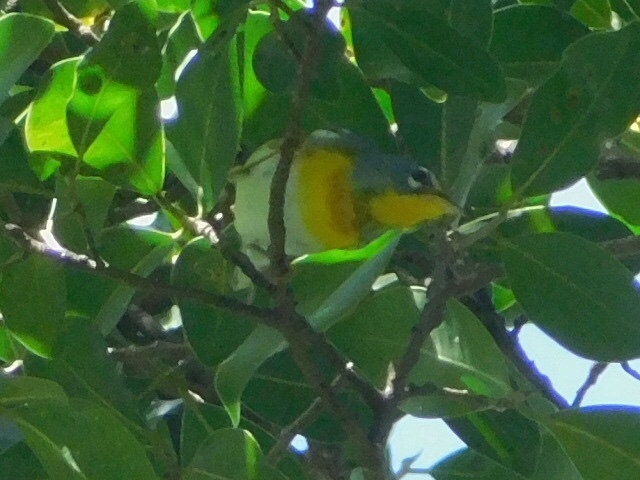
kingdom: Animalia
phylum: Chordata
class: Aves
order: Passeriformes
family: Parulidae
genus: Setophaga
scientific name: Setophaga americana
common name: Northern parula
